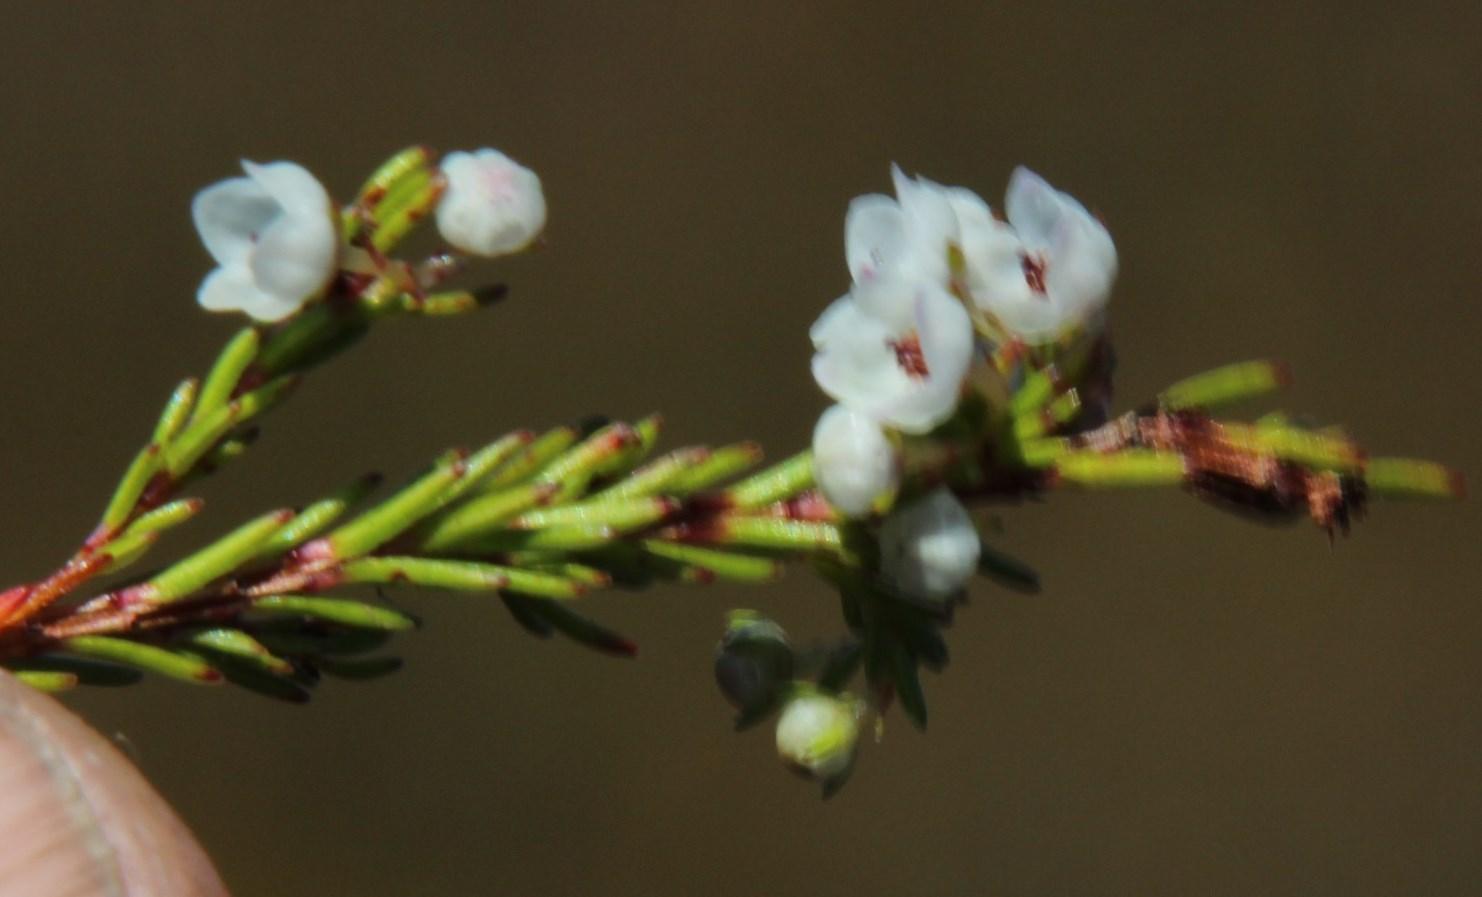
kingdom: Plantae
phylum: Tracheophyta
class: Magnoliopsida
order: Ericales
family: Ericaceae
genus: Erica
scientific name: Erica capensis
